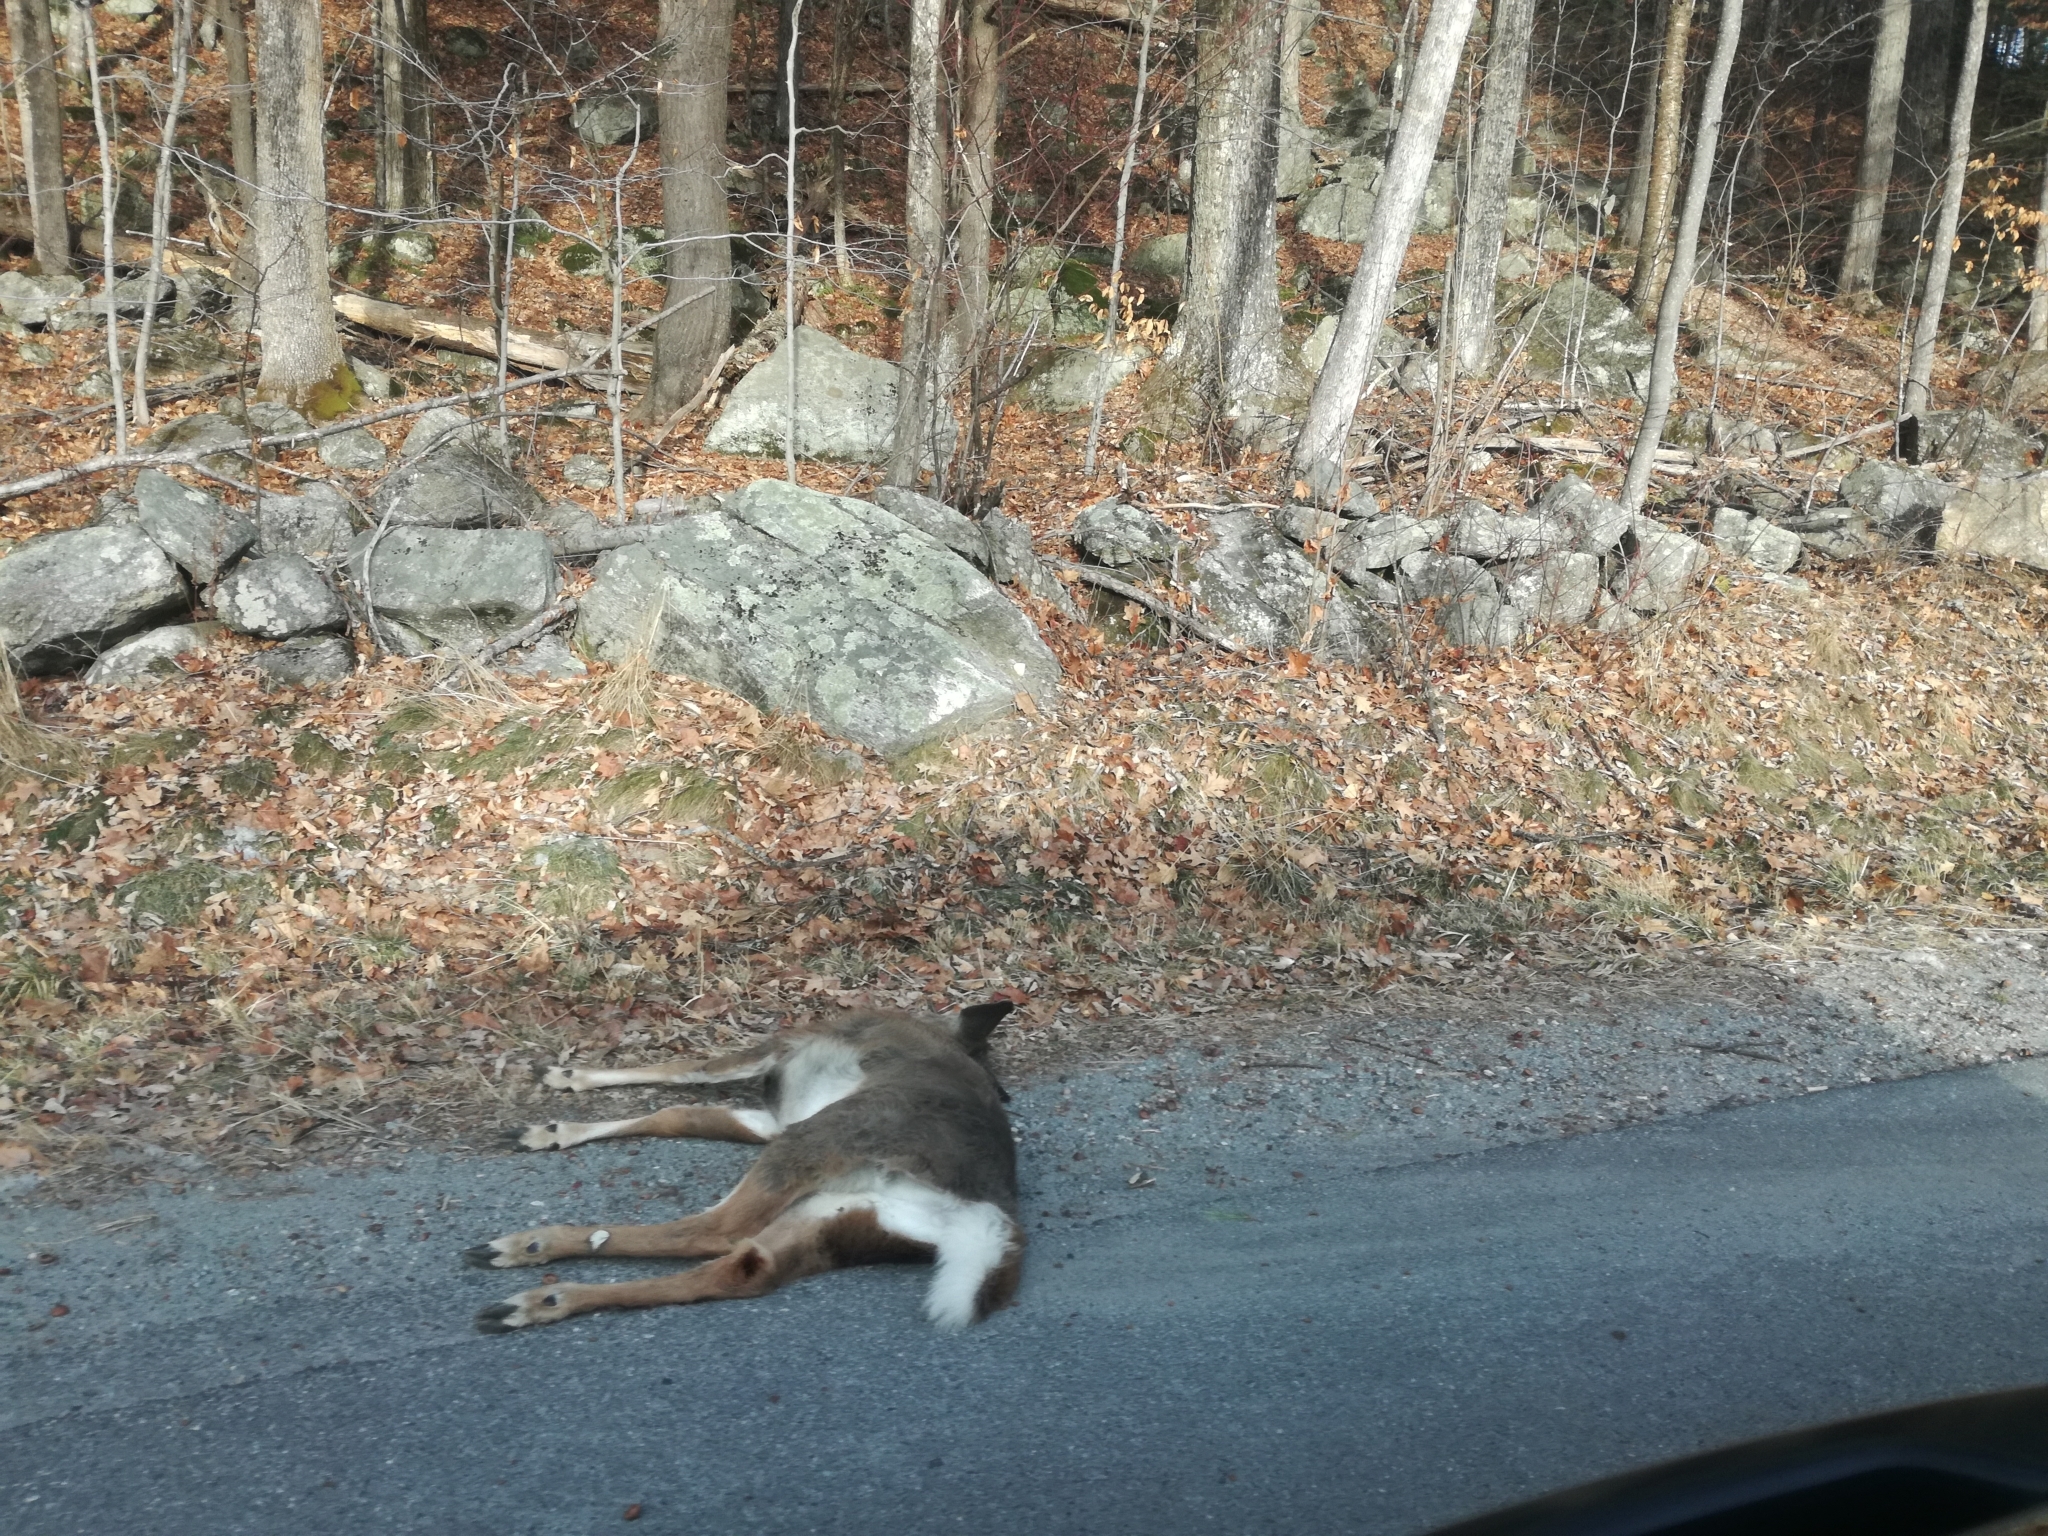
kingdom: Animalia
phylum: Chordata
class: Mammalia
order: Artiodactyla
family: Cervidae
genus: Odocoileus
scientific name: Odocoileus virginianus
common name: White-tailed deer
